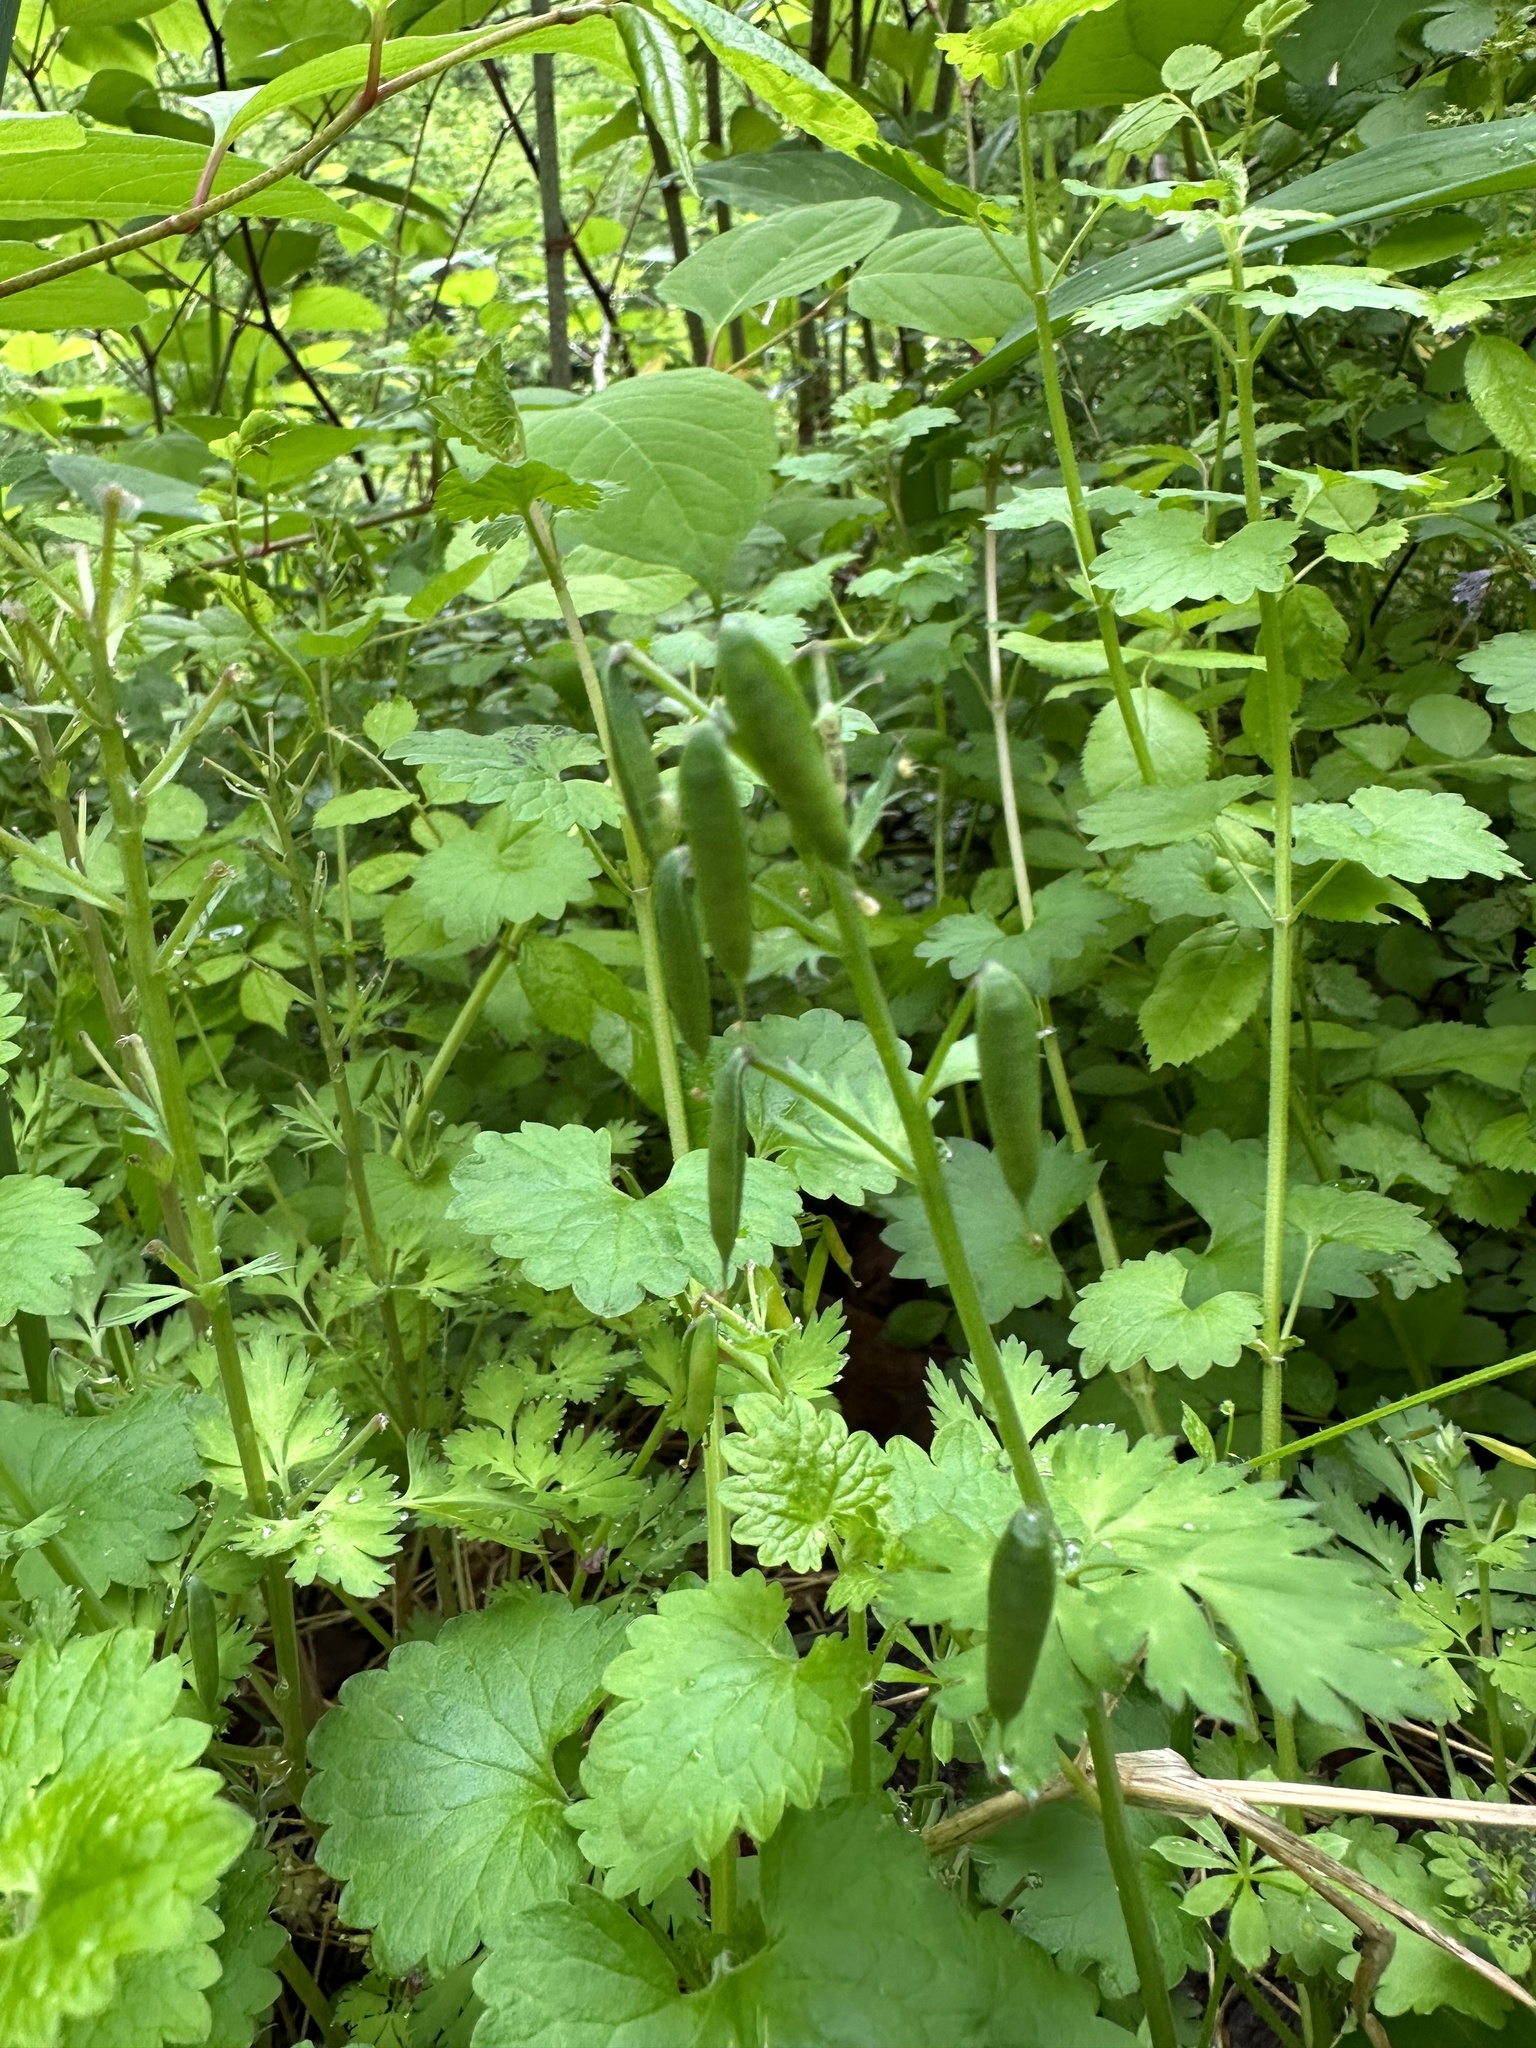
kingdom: Plantae
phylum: Tracheophyta
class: Magnoliopsida
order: Ranunculales
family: Papaveraceae
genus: Corydalis
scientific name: Corydalis incisa
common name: Incised fumewort
